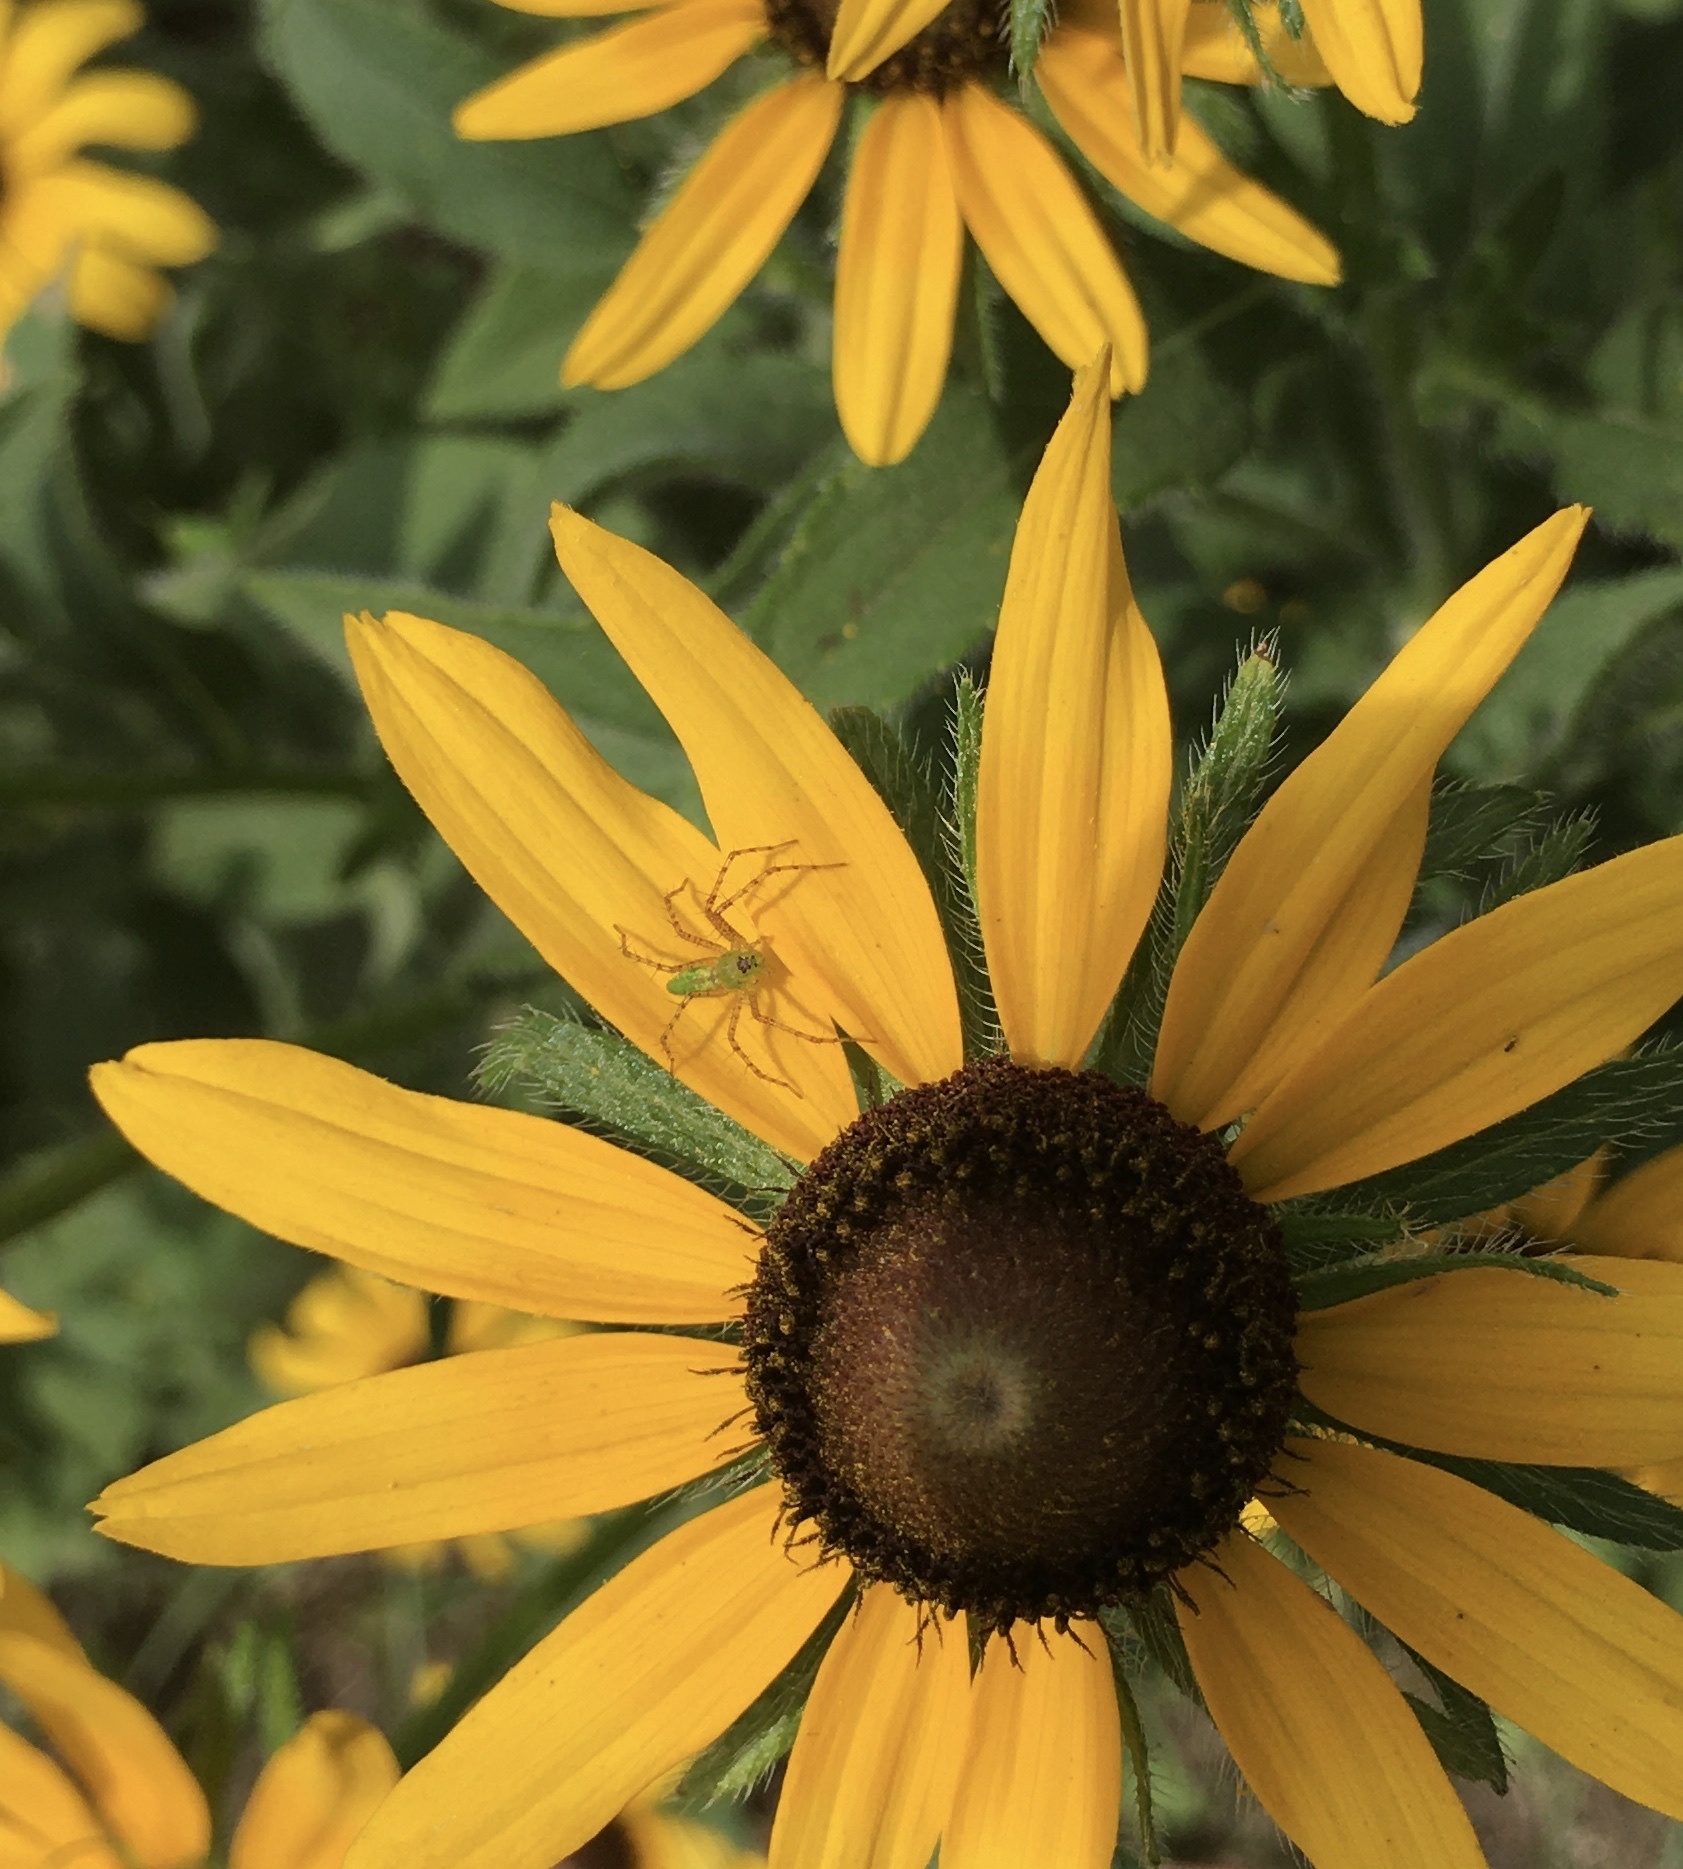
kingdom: Animalia
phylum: Arthropoda
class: Arachnida
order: Araneae
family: Oxyopidae
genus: Peucetia
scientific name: Peucetia viridans
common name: Lynx spiders
